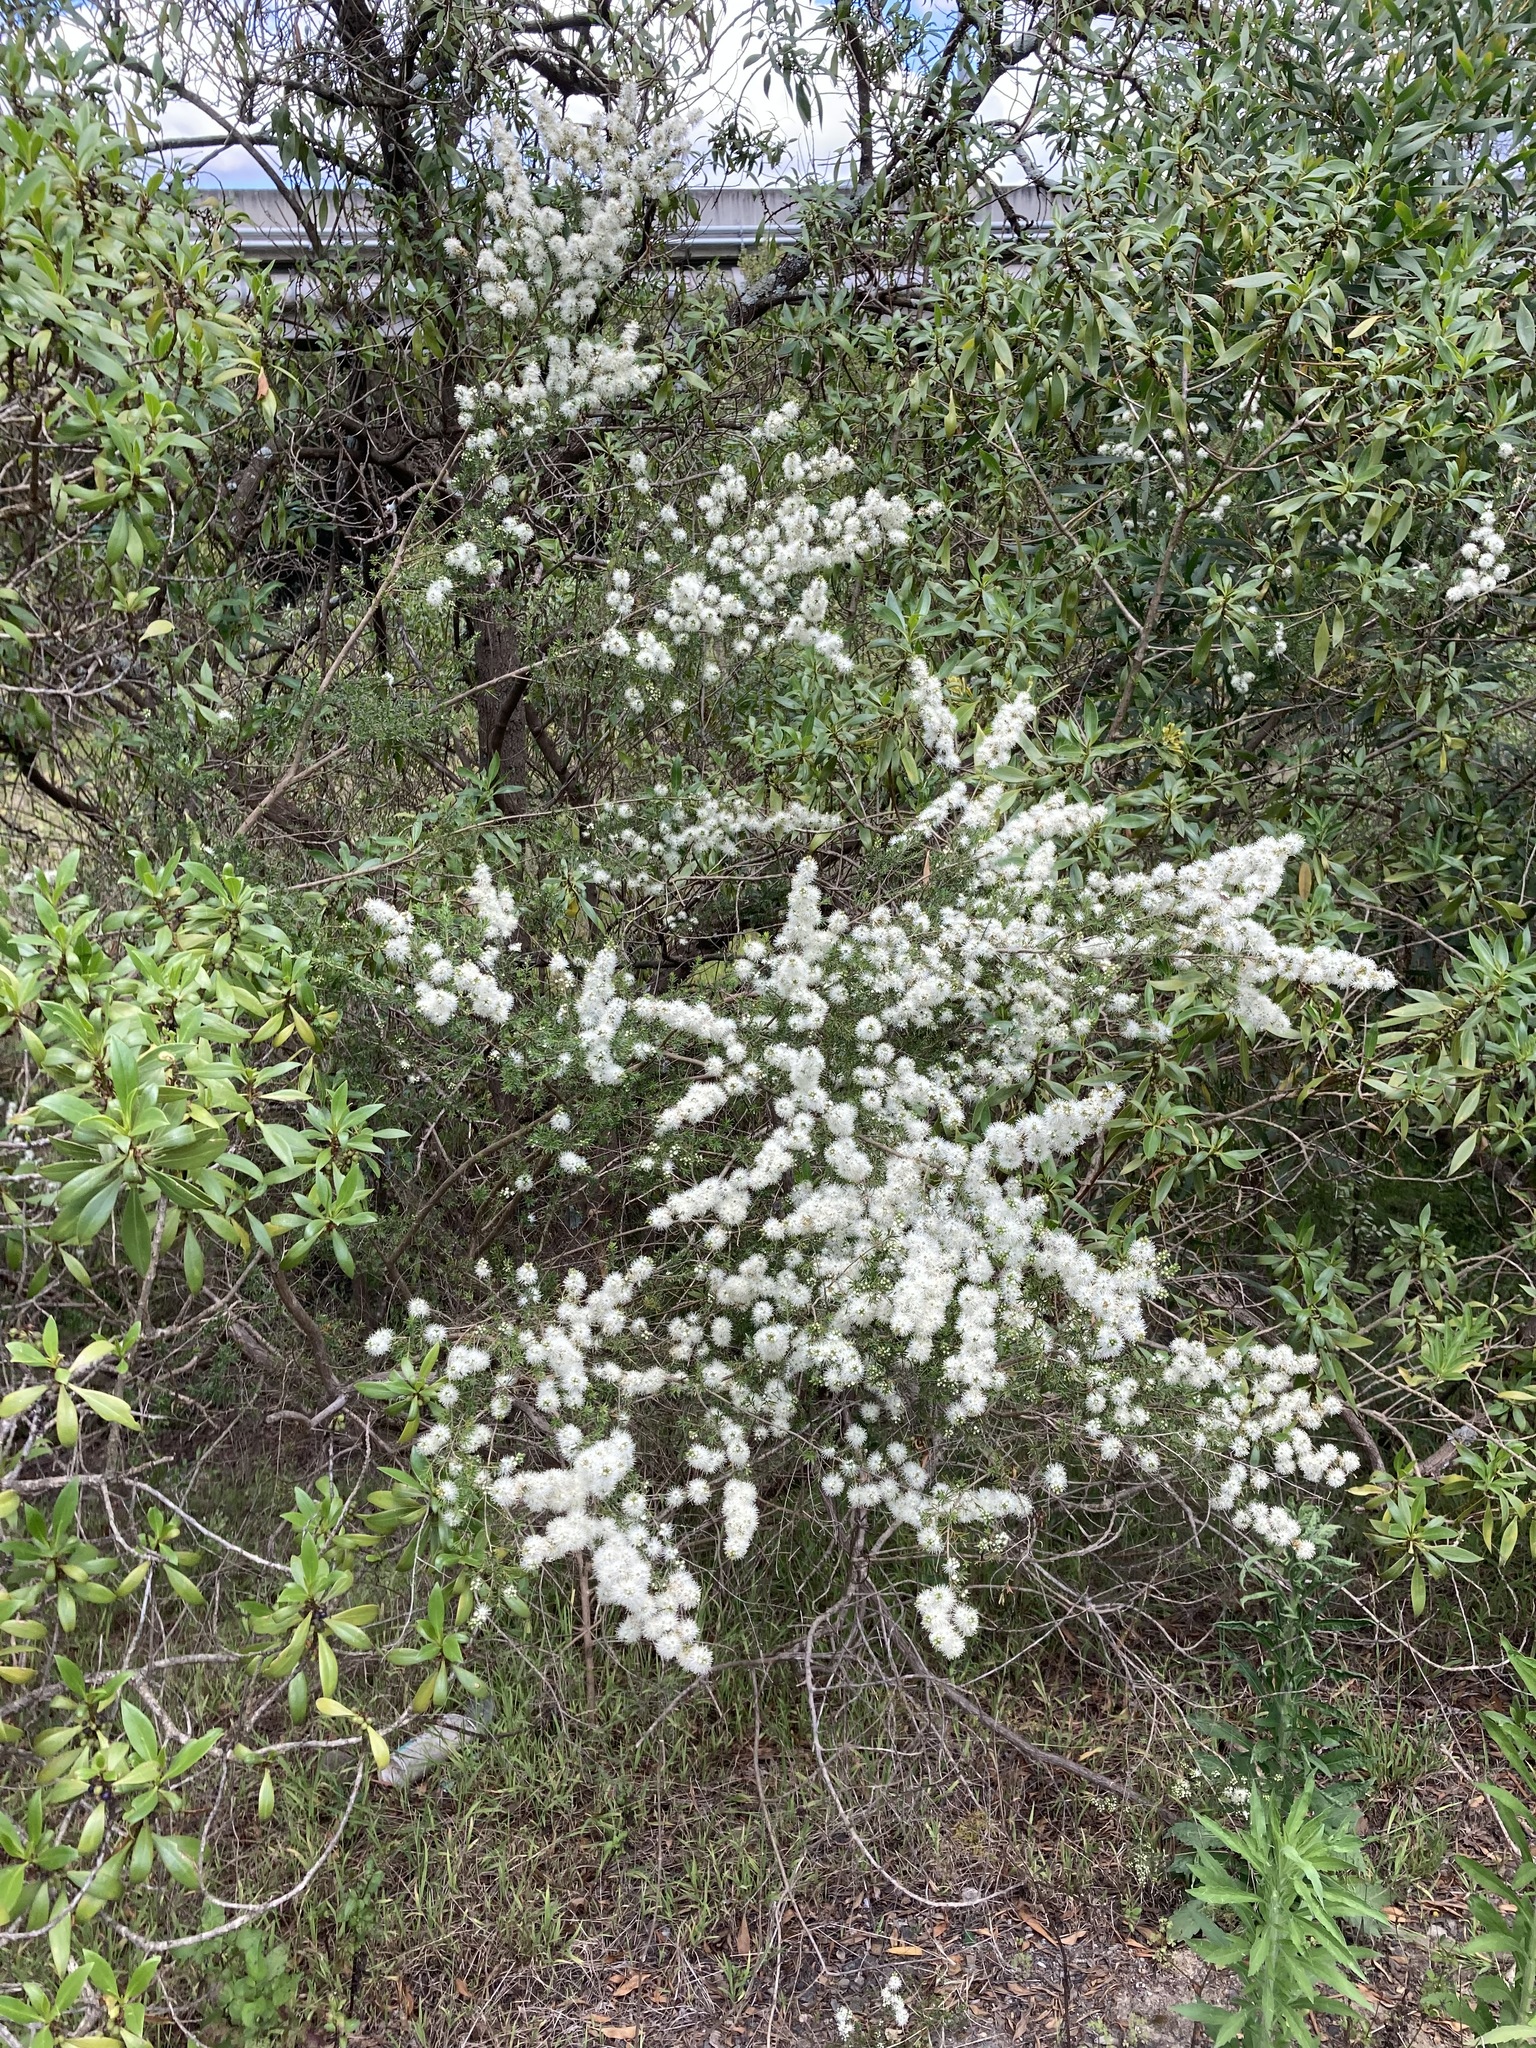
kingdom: Plantae
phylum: Tracheophyta
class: Magnoliopsida
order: Myrtales
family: Myrtaceae
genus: Kunzea
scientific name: Kunzea ambigua
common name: Tickbush
